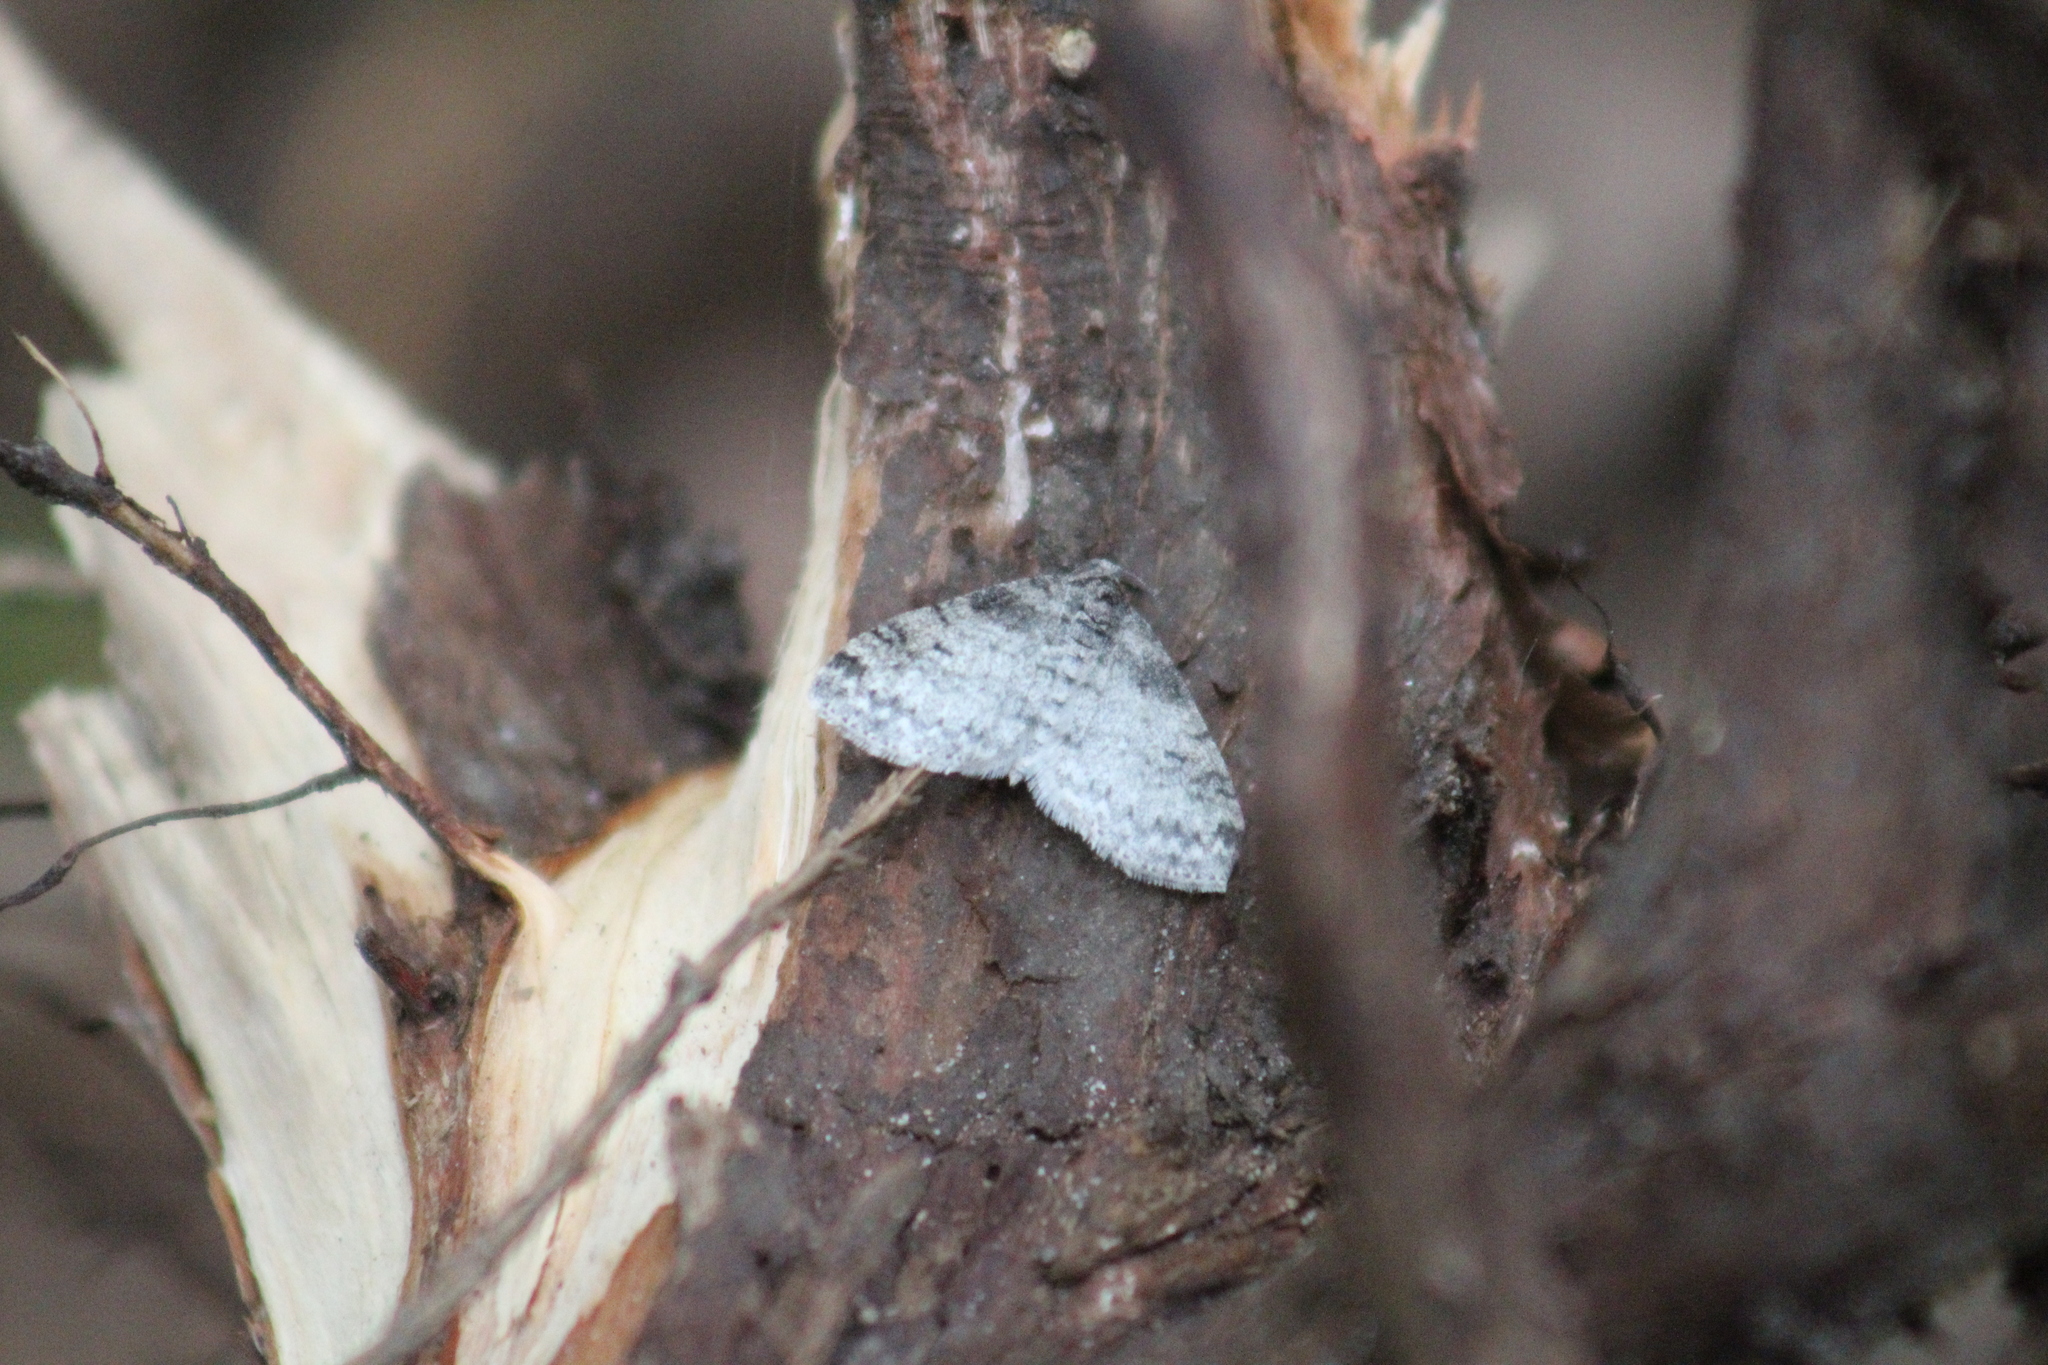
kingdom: Animalia
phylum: Arthropoda
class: Insecta
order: Lepidoptera
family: Geometridae
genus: Lobophora
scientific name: Lobophora nivigerata
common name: Powdered bigwing
